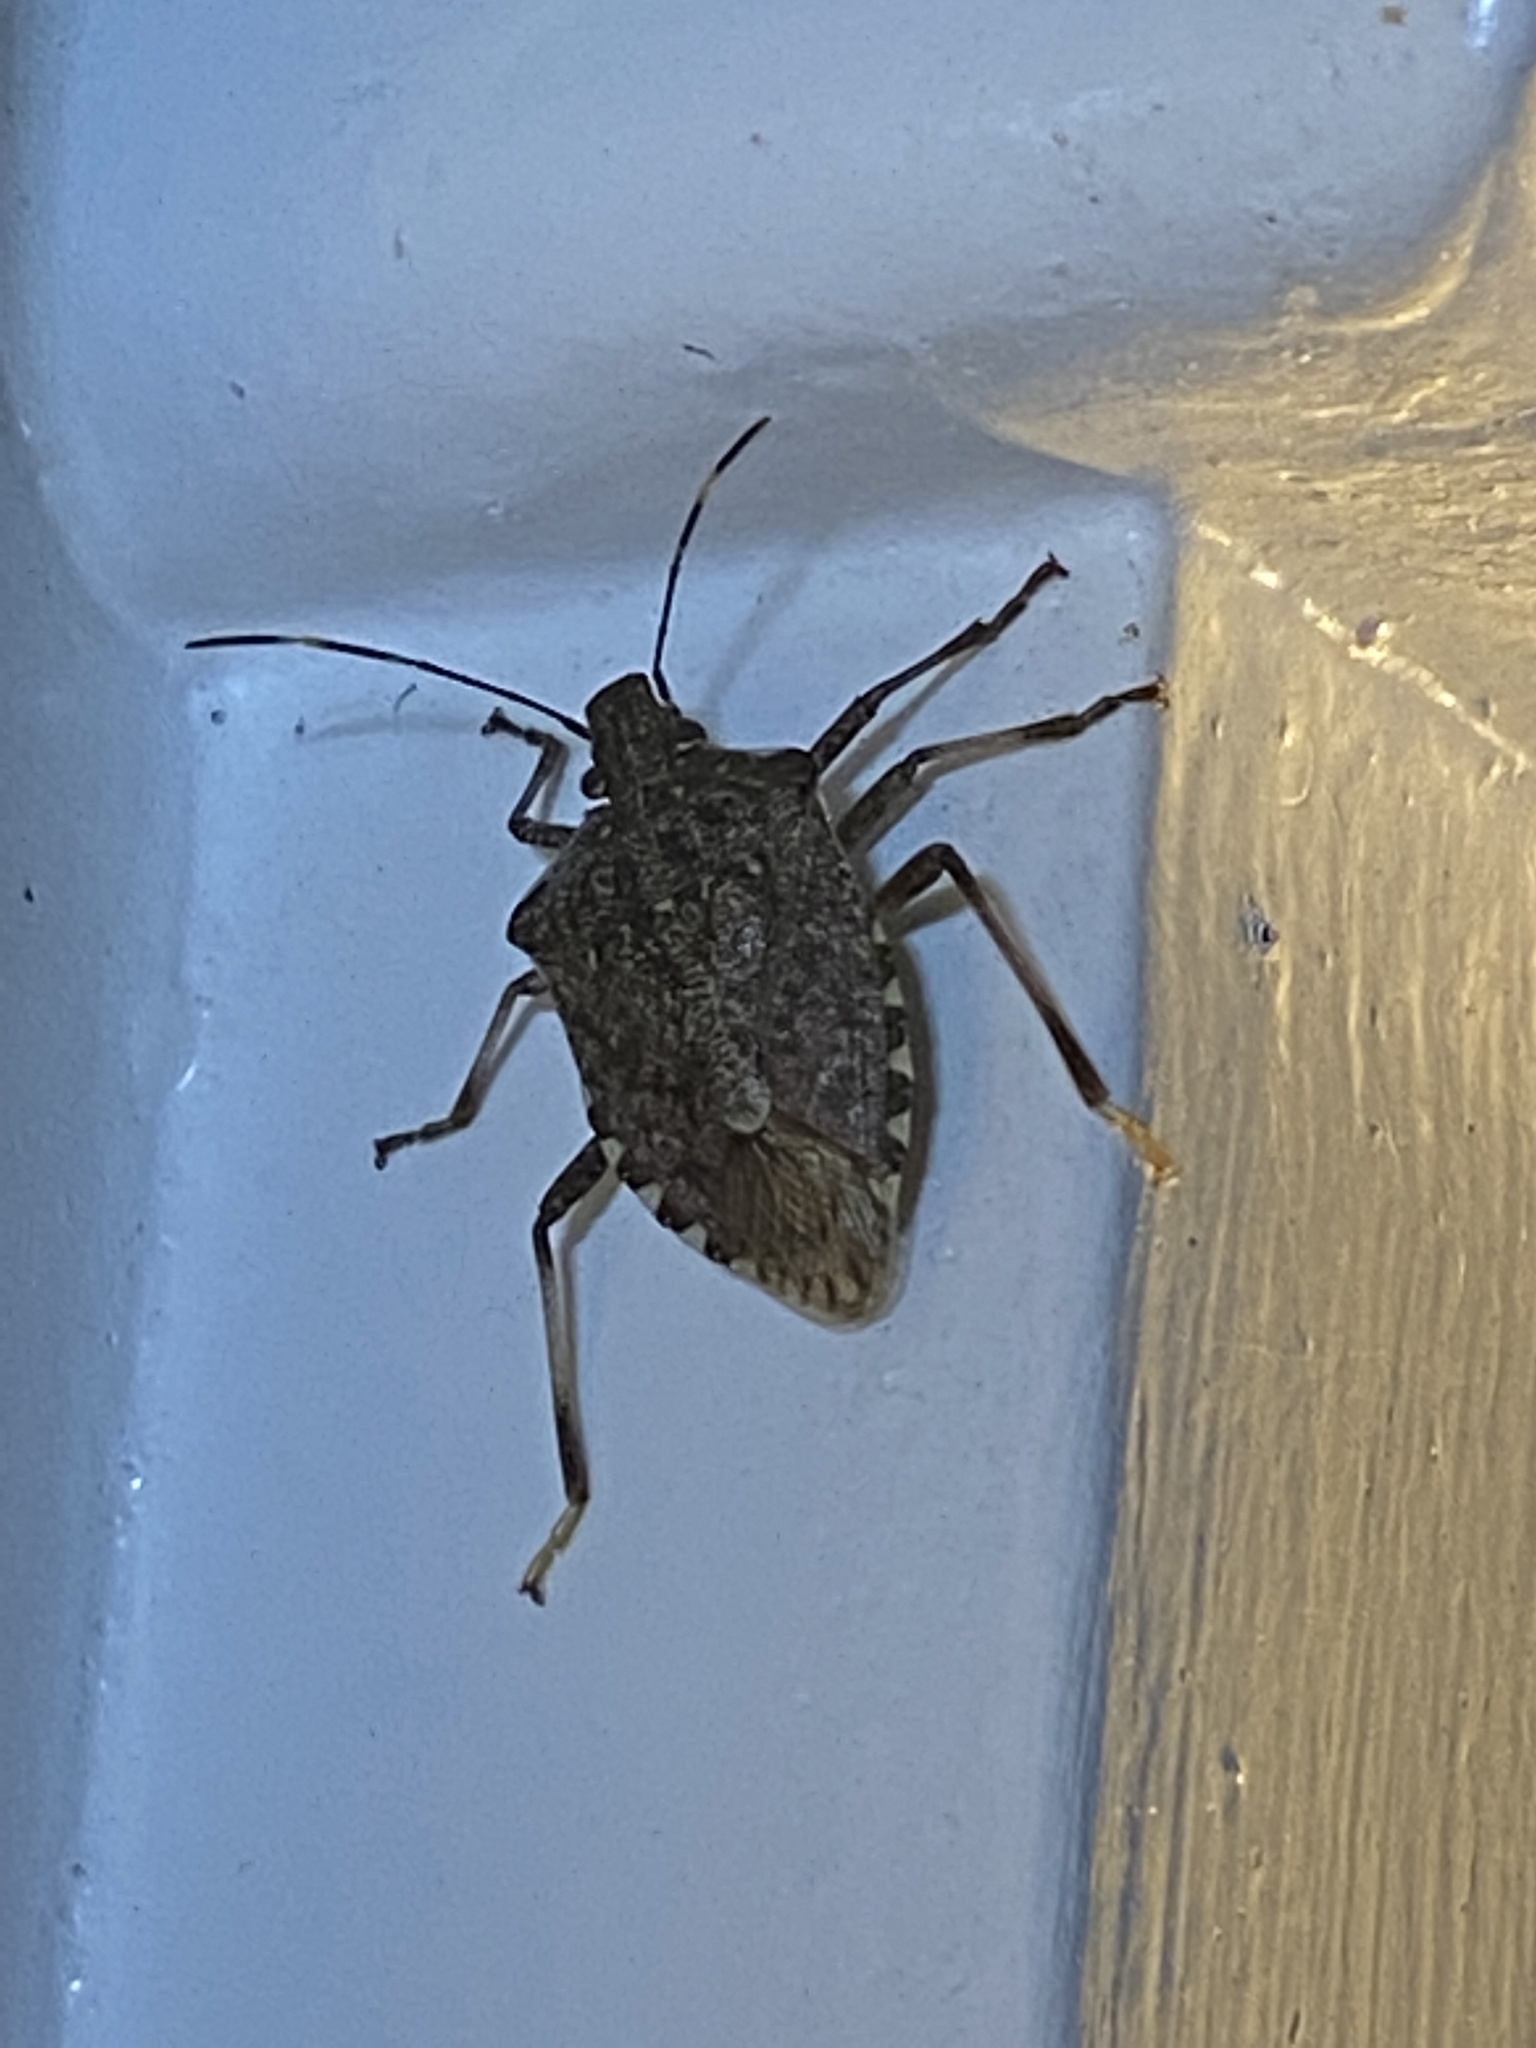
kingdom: Animalia
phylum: Arthropoda
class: Insecta
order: Hemiptera
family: Pentatomidae
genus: Halyomorpha
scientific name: Halyomorpha halys
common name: Brown marmorated stink bug
